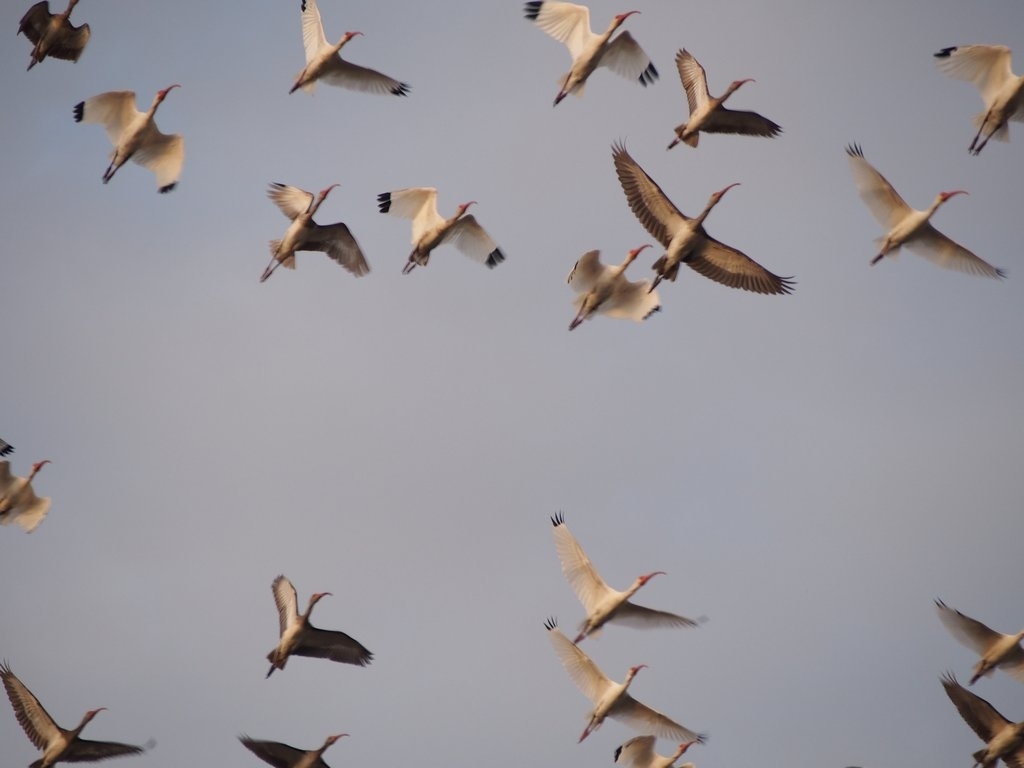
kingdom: Animalia
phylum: Chordata
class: Aves
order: Pelecaniformes
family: Threskiornithidae
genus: Eudocimus
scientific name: Eudocimus albus
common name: White ibis
